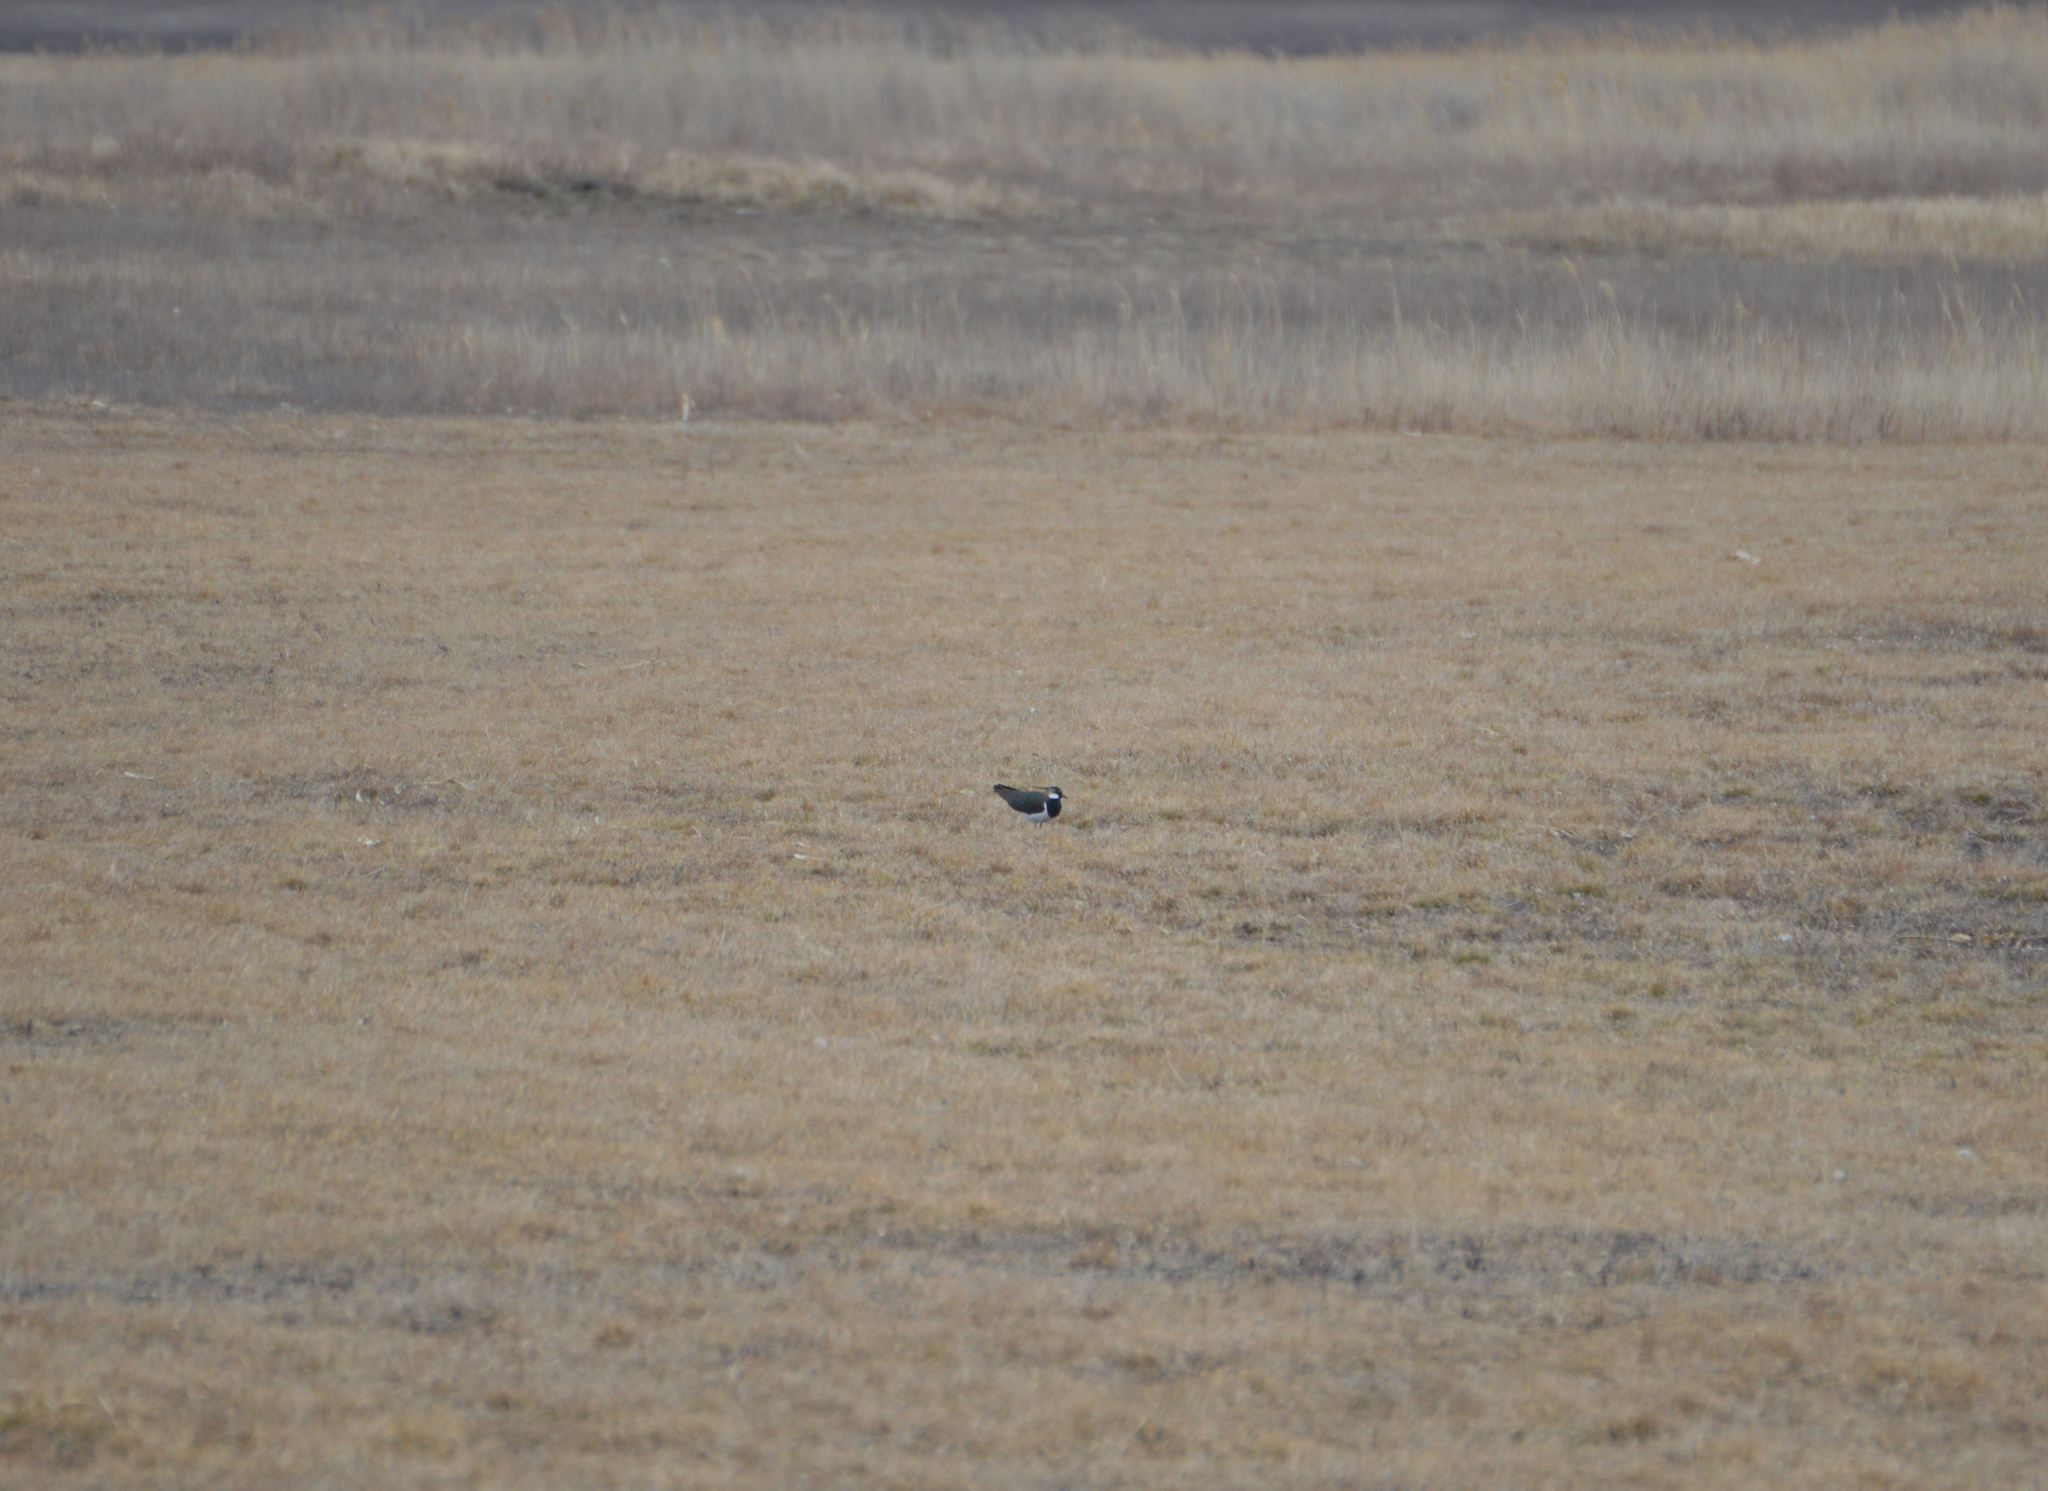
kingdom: Animalia
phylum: Chordata
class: Aves
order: Charadriiformes
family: Charadriidae
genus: Vanellus
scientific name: Vanellus vanellus
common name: Northern lapwing
